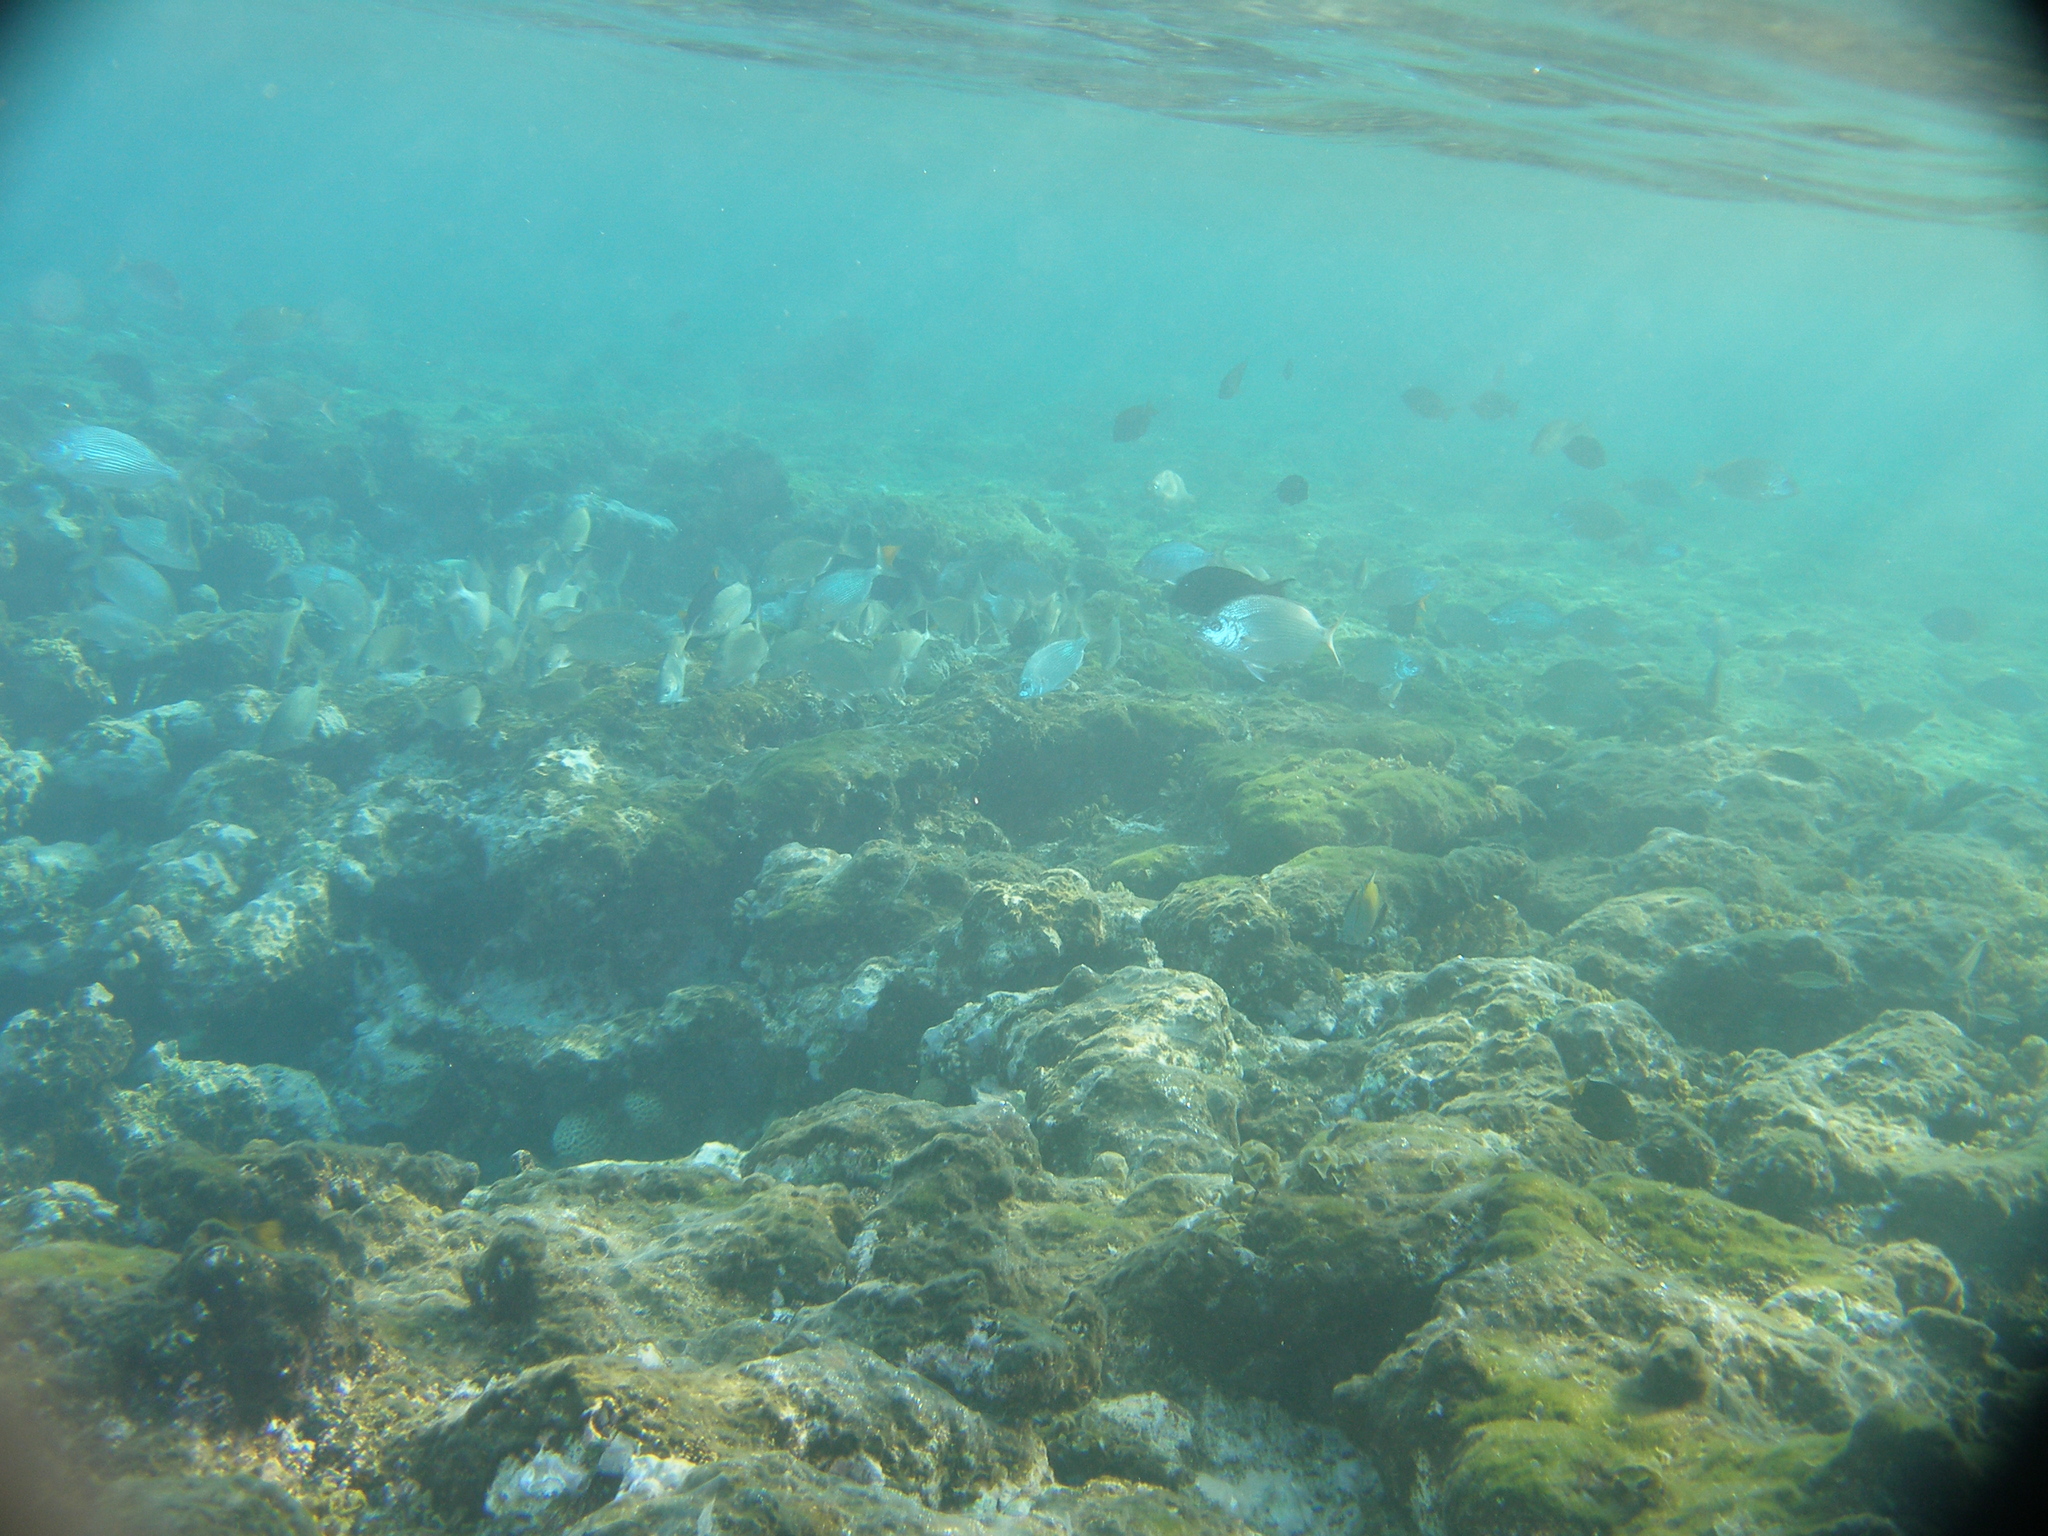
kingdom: Animalia
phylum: Chordata
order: Perciformes
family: Sparidae
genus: Diplodus
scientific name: Diplodus noct
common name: Arabian pinfish
